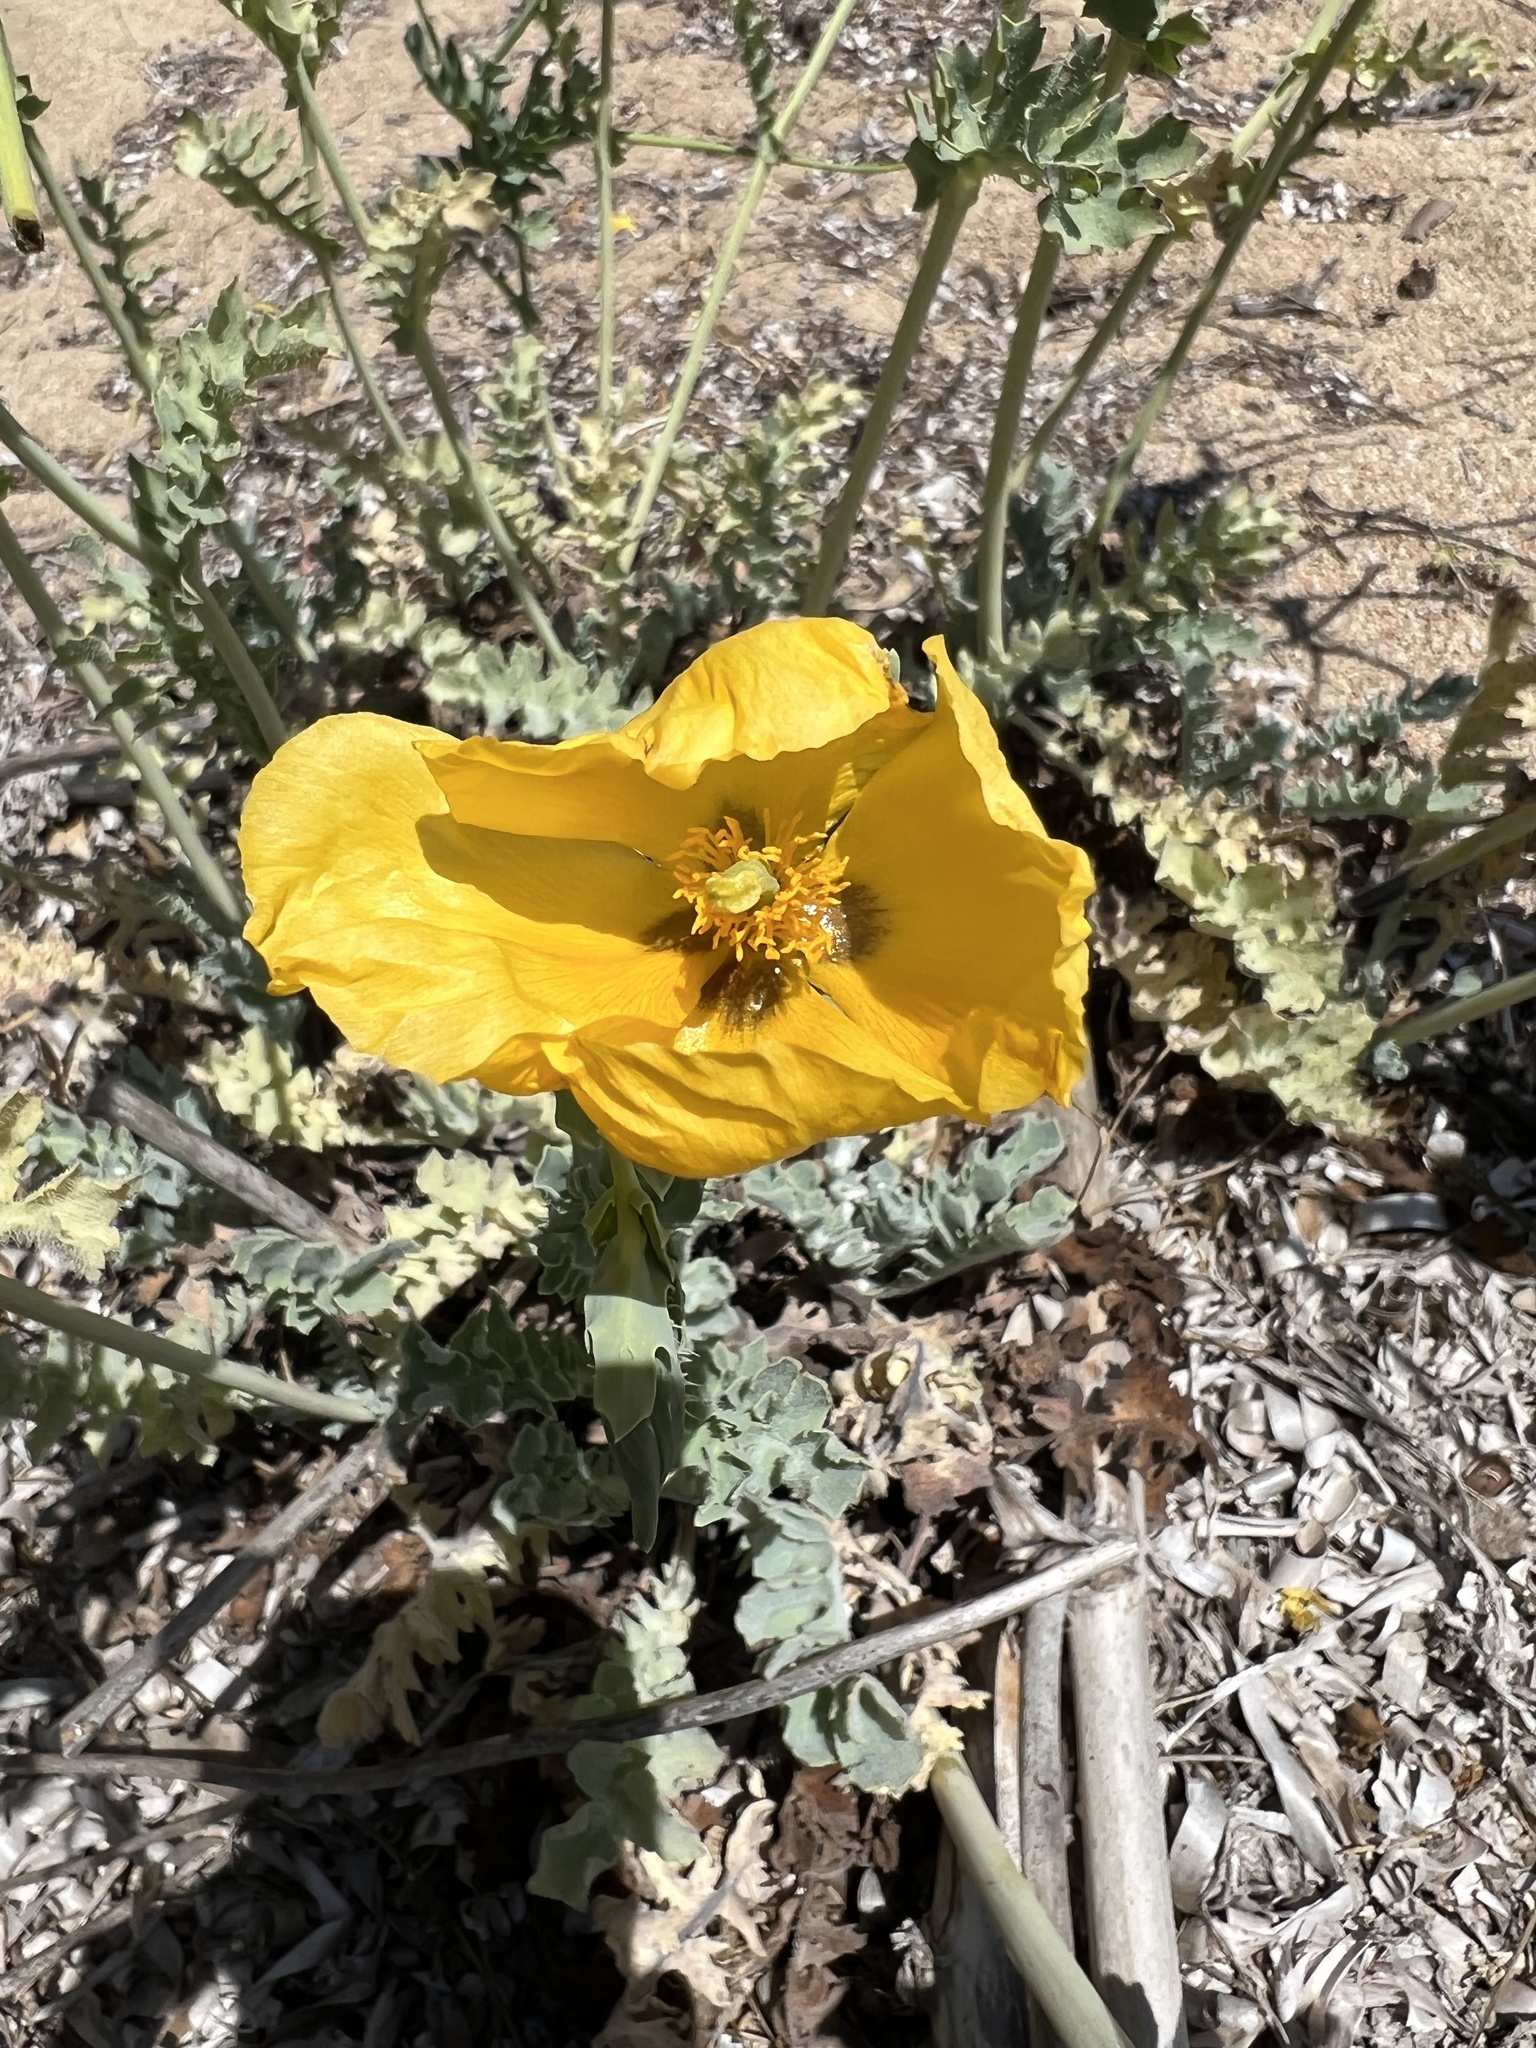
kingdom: Plantae
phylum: Tracheophyta
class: Magnoliopsida
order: Ranunculales
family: Papaveraceae
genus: Glaucium
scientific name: Glaucium flavum
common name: Yellow horned-poppy
